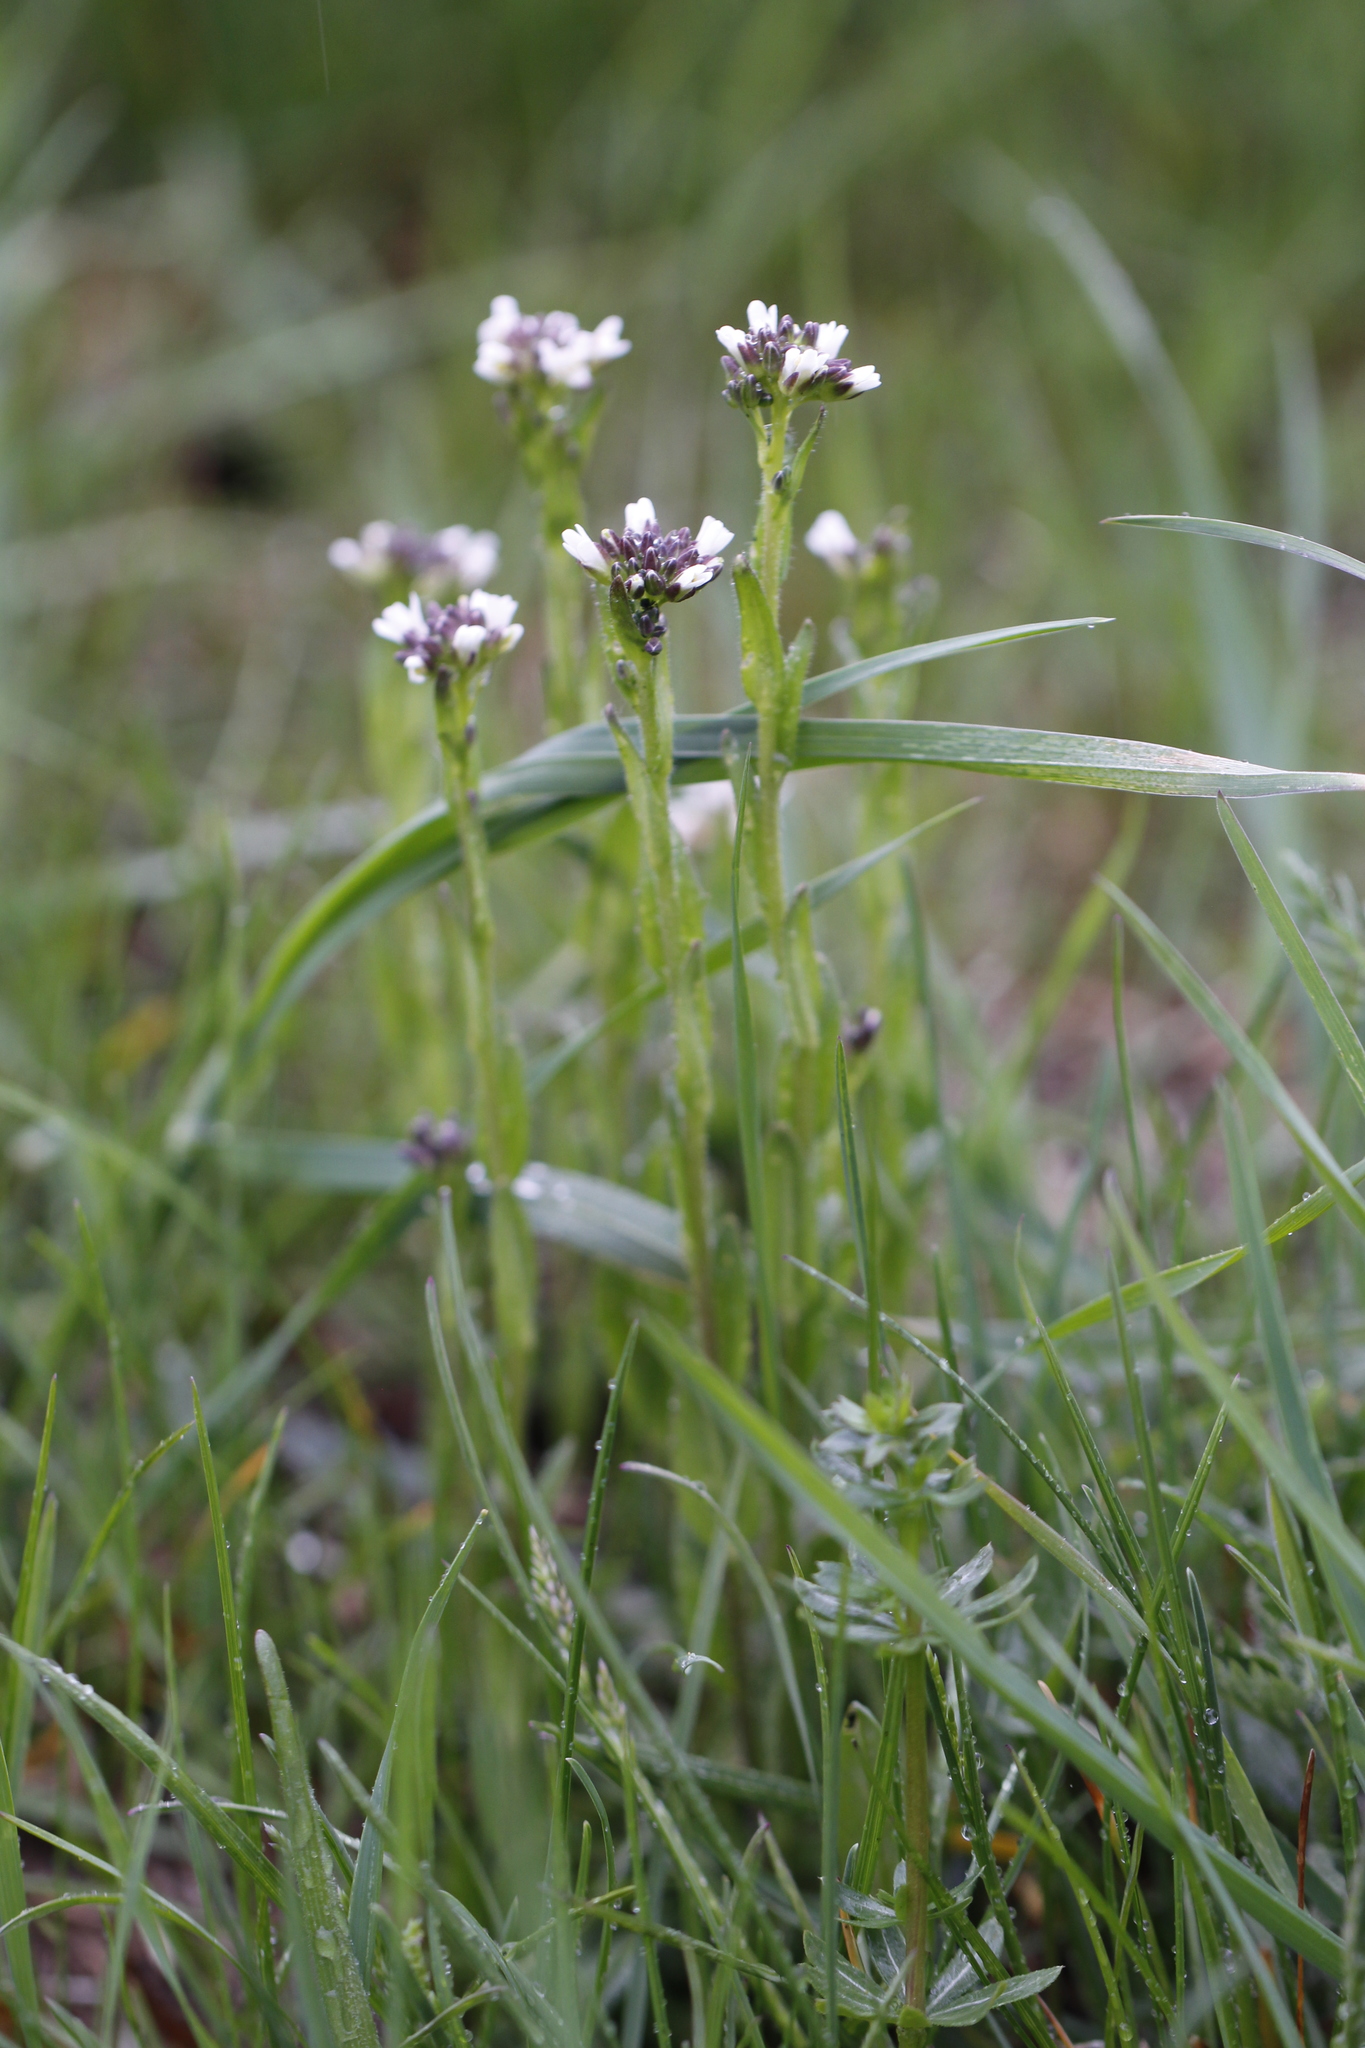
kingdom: Plantae
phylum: Tracheophyta
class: Magnoliopsida
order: Brassicales
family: Brassicaceae
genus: Arabis
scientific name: Arabis hirsuta
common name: Hairy rock-cress
